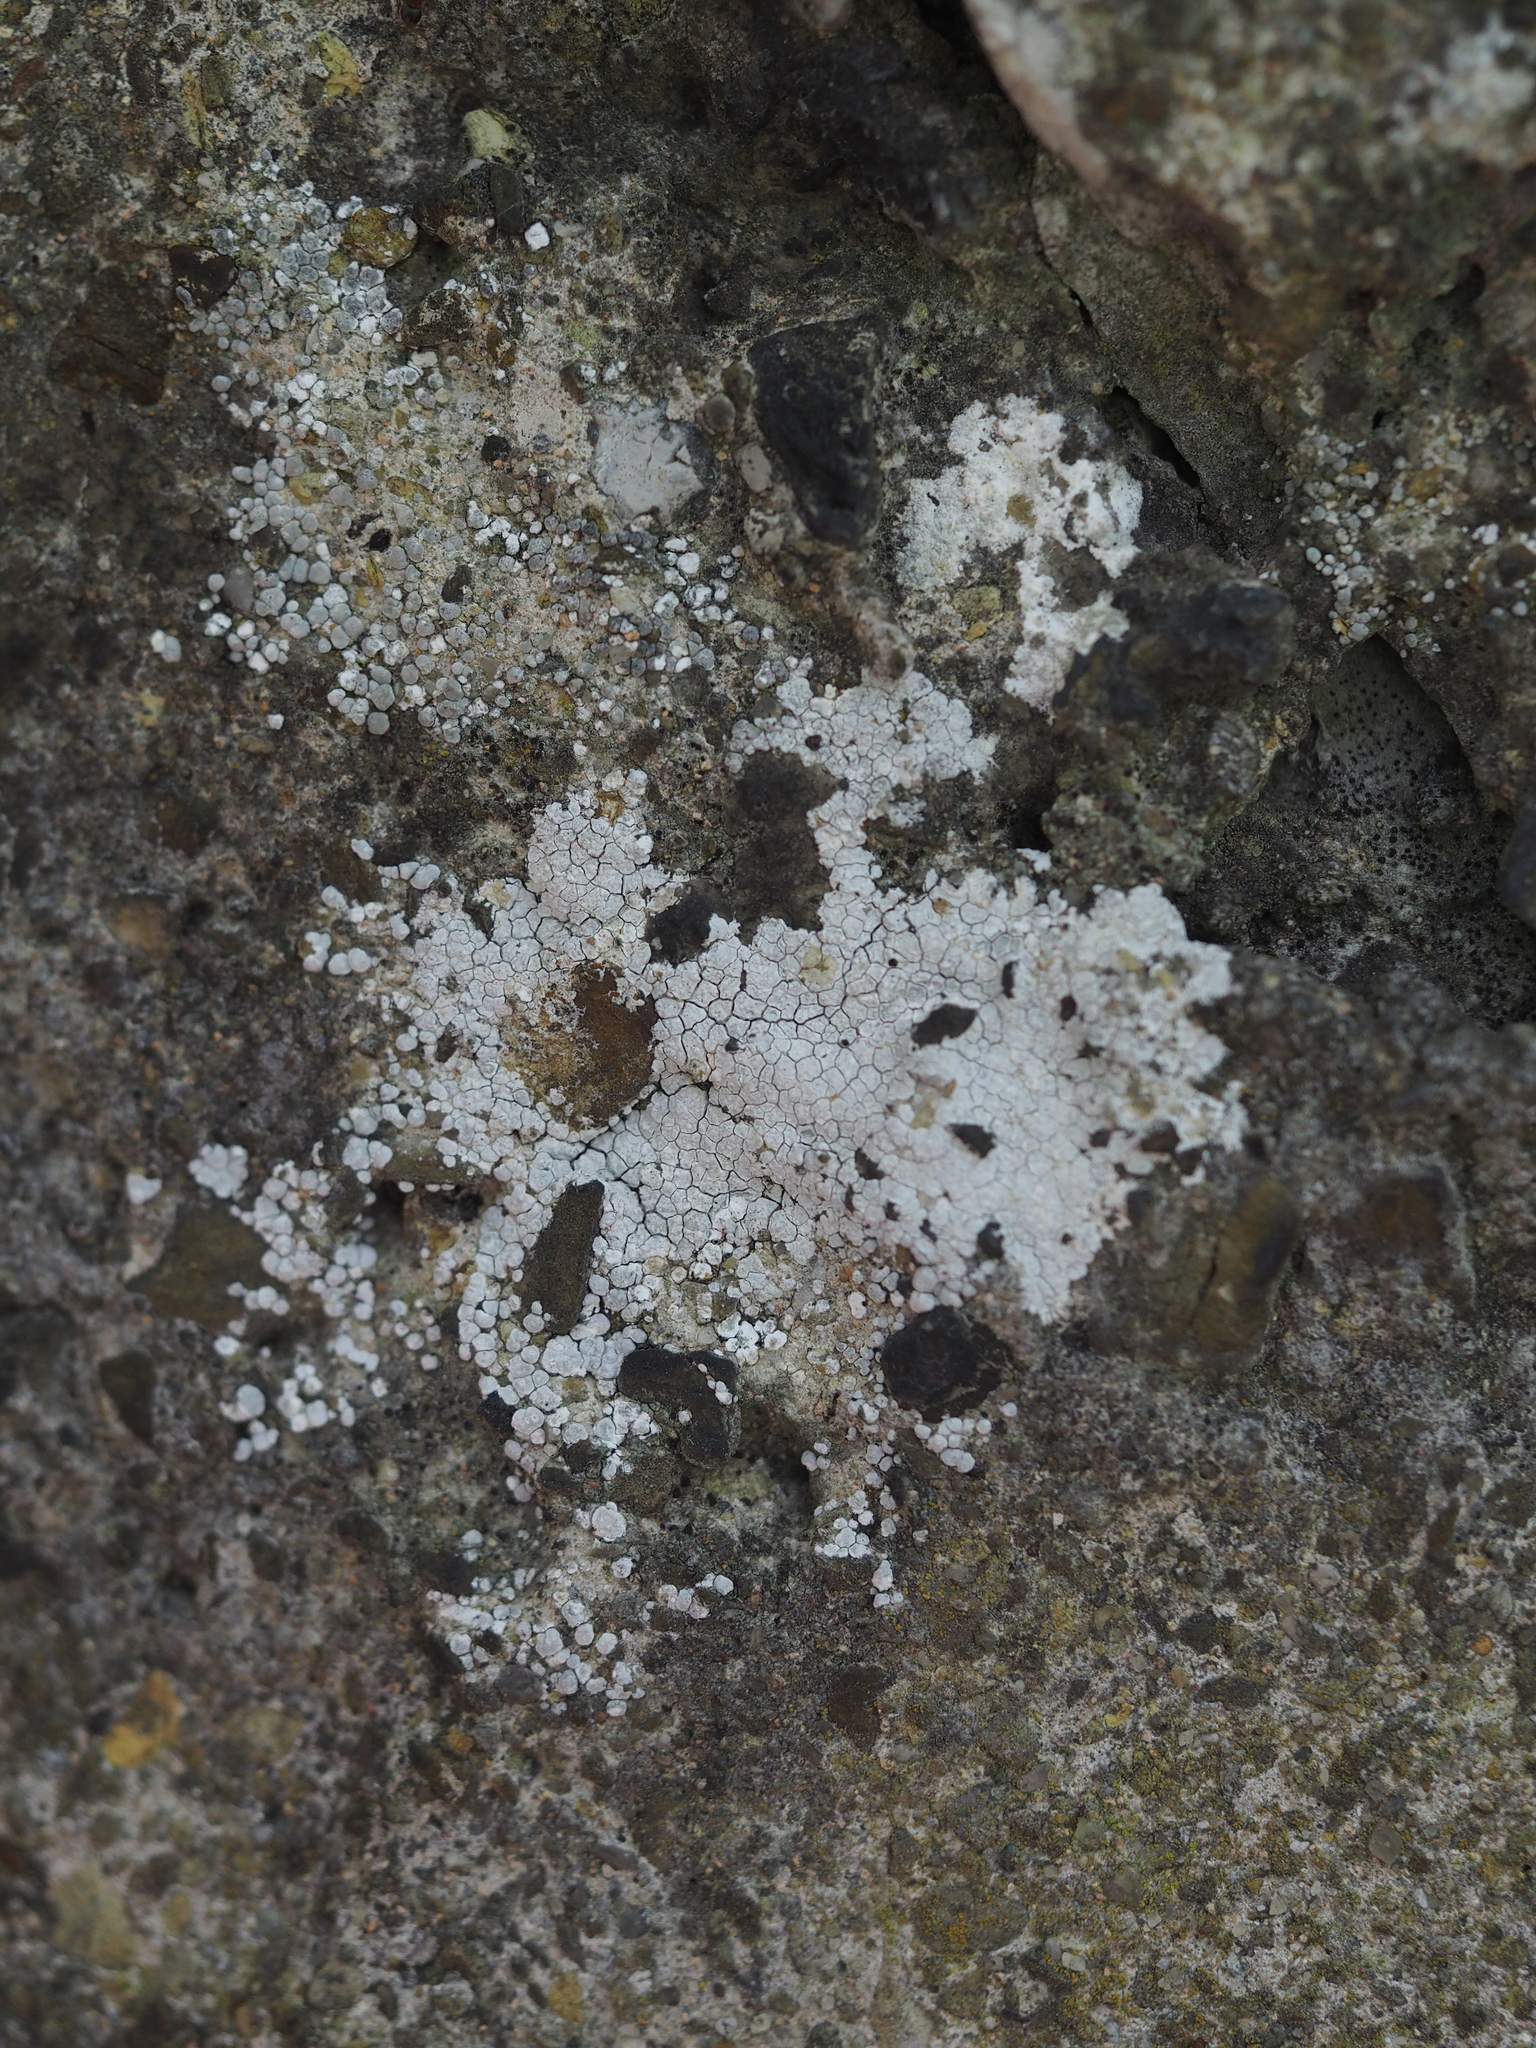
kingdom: Fungi
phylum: Ascomycota
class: Lecanoromycetes
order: Pertusariales
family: Megasporaceae
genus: Circinaria
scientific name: Circinaria contorta
